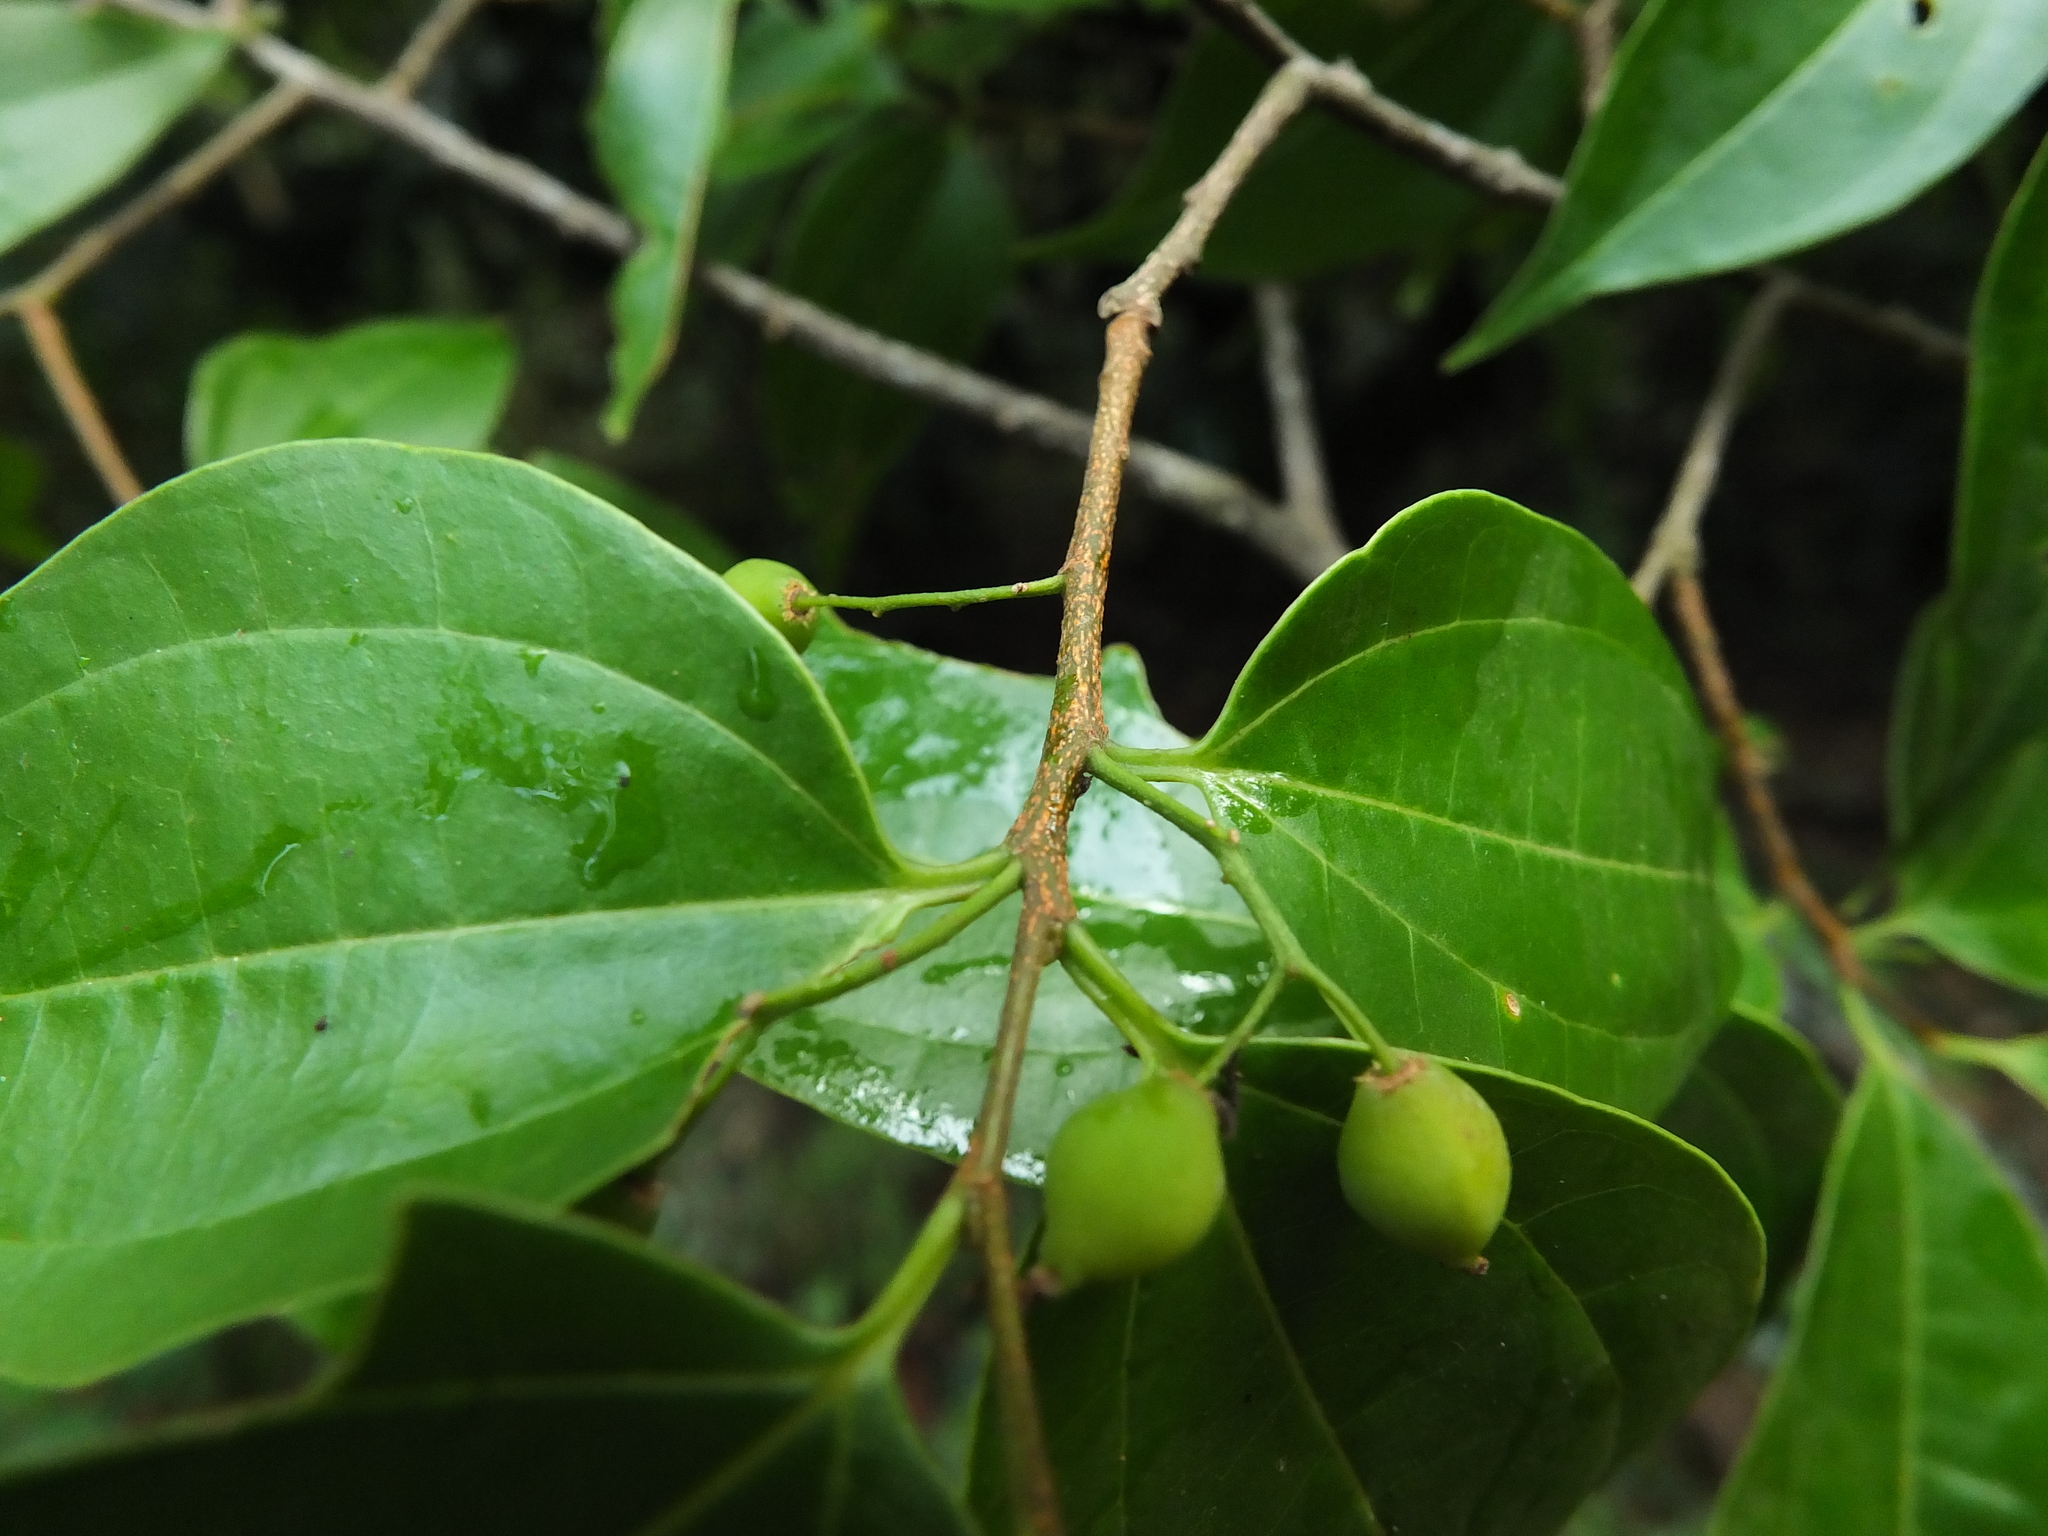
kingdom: Plantae
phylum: Tracheophyta
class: Magnoliopsida
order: Rosales
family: Cannabaceae
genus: Celtis
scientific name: Celtis timorensis
